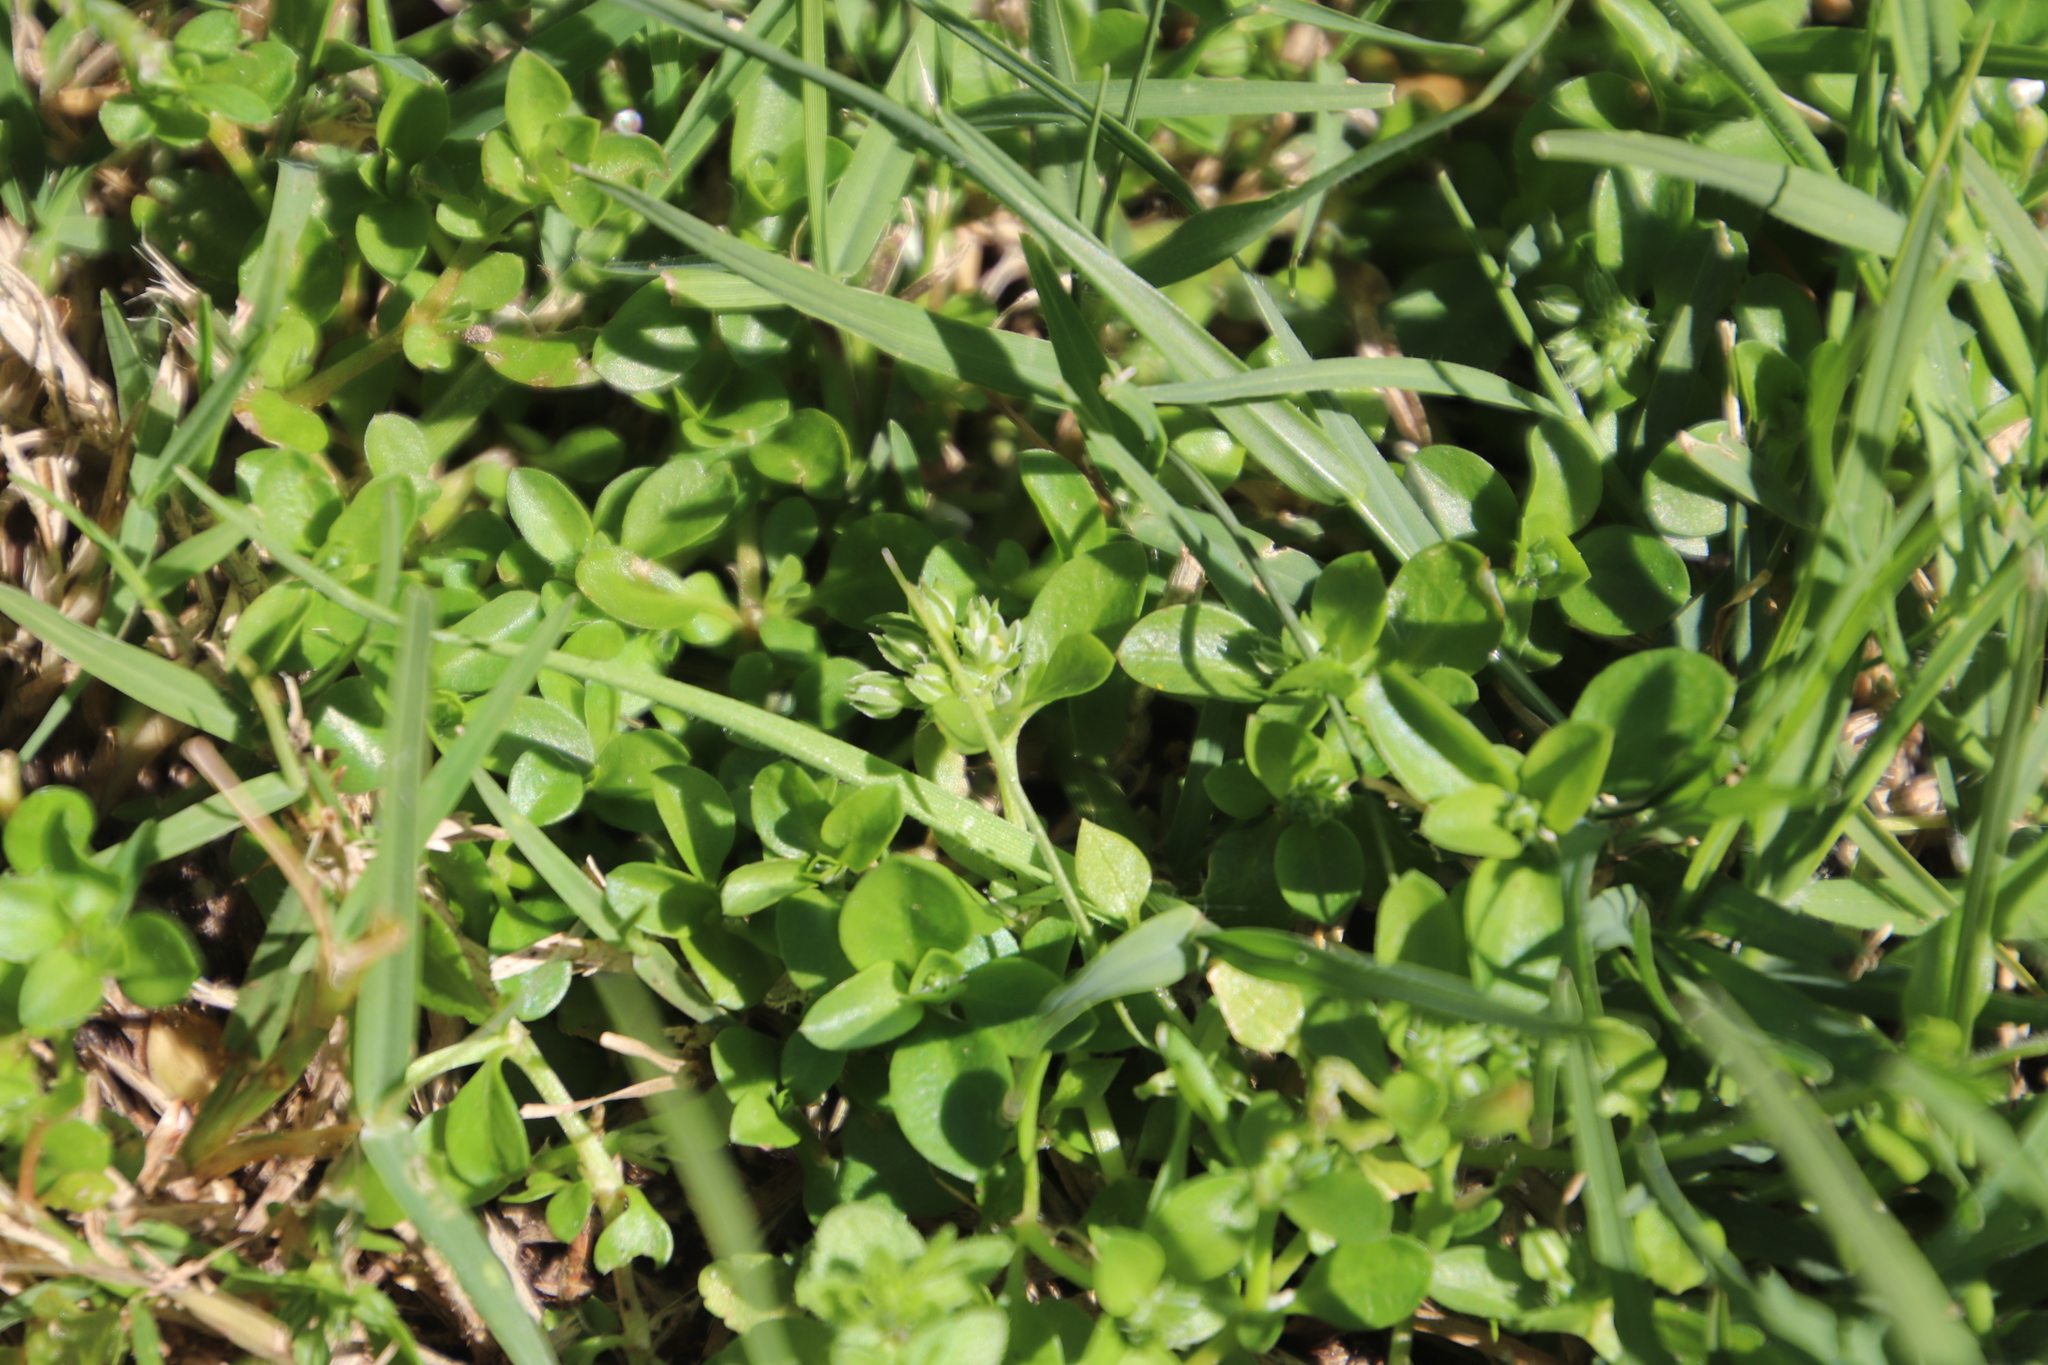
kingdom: Plantae
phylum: Tracheophyta
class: Magnoliopsida
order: Caryophyllales
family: Caryophyllaceae
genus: Polycarpon
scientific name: Polycarpon tetraphyllum
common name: Four-leaved all-seed
